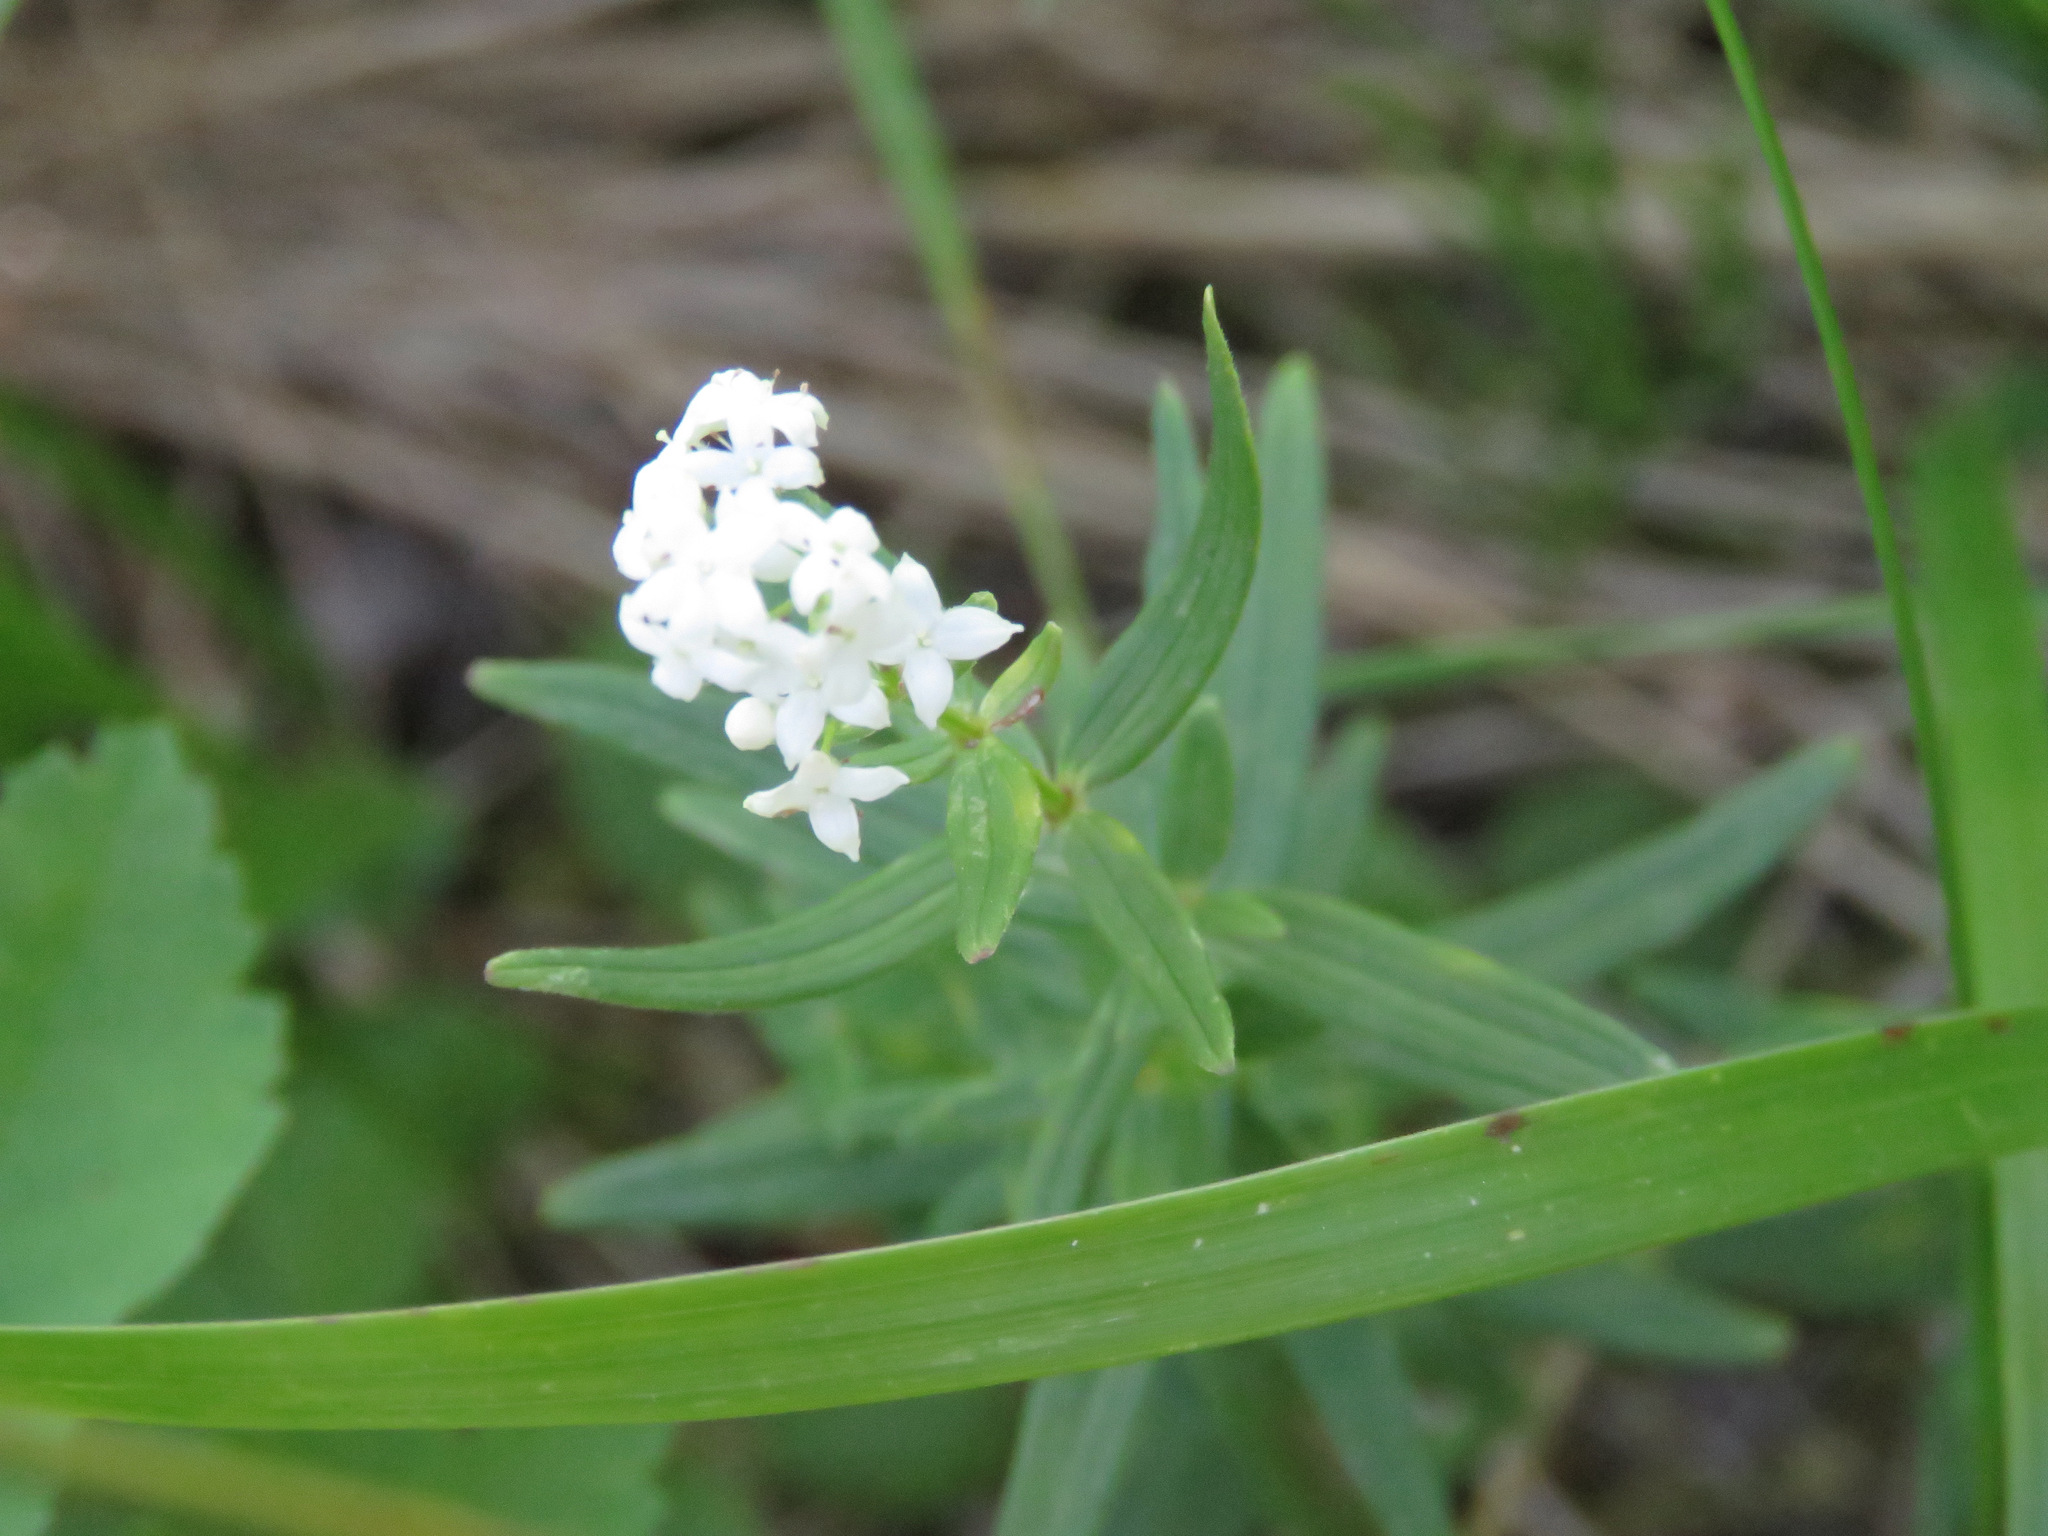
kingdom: Plantae
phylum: Tracheophyta
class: Magnoliopsida
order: Gentianales
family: Rubiaceae
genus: Galium
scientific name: Galium boreale
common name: Northern bedstraw
